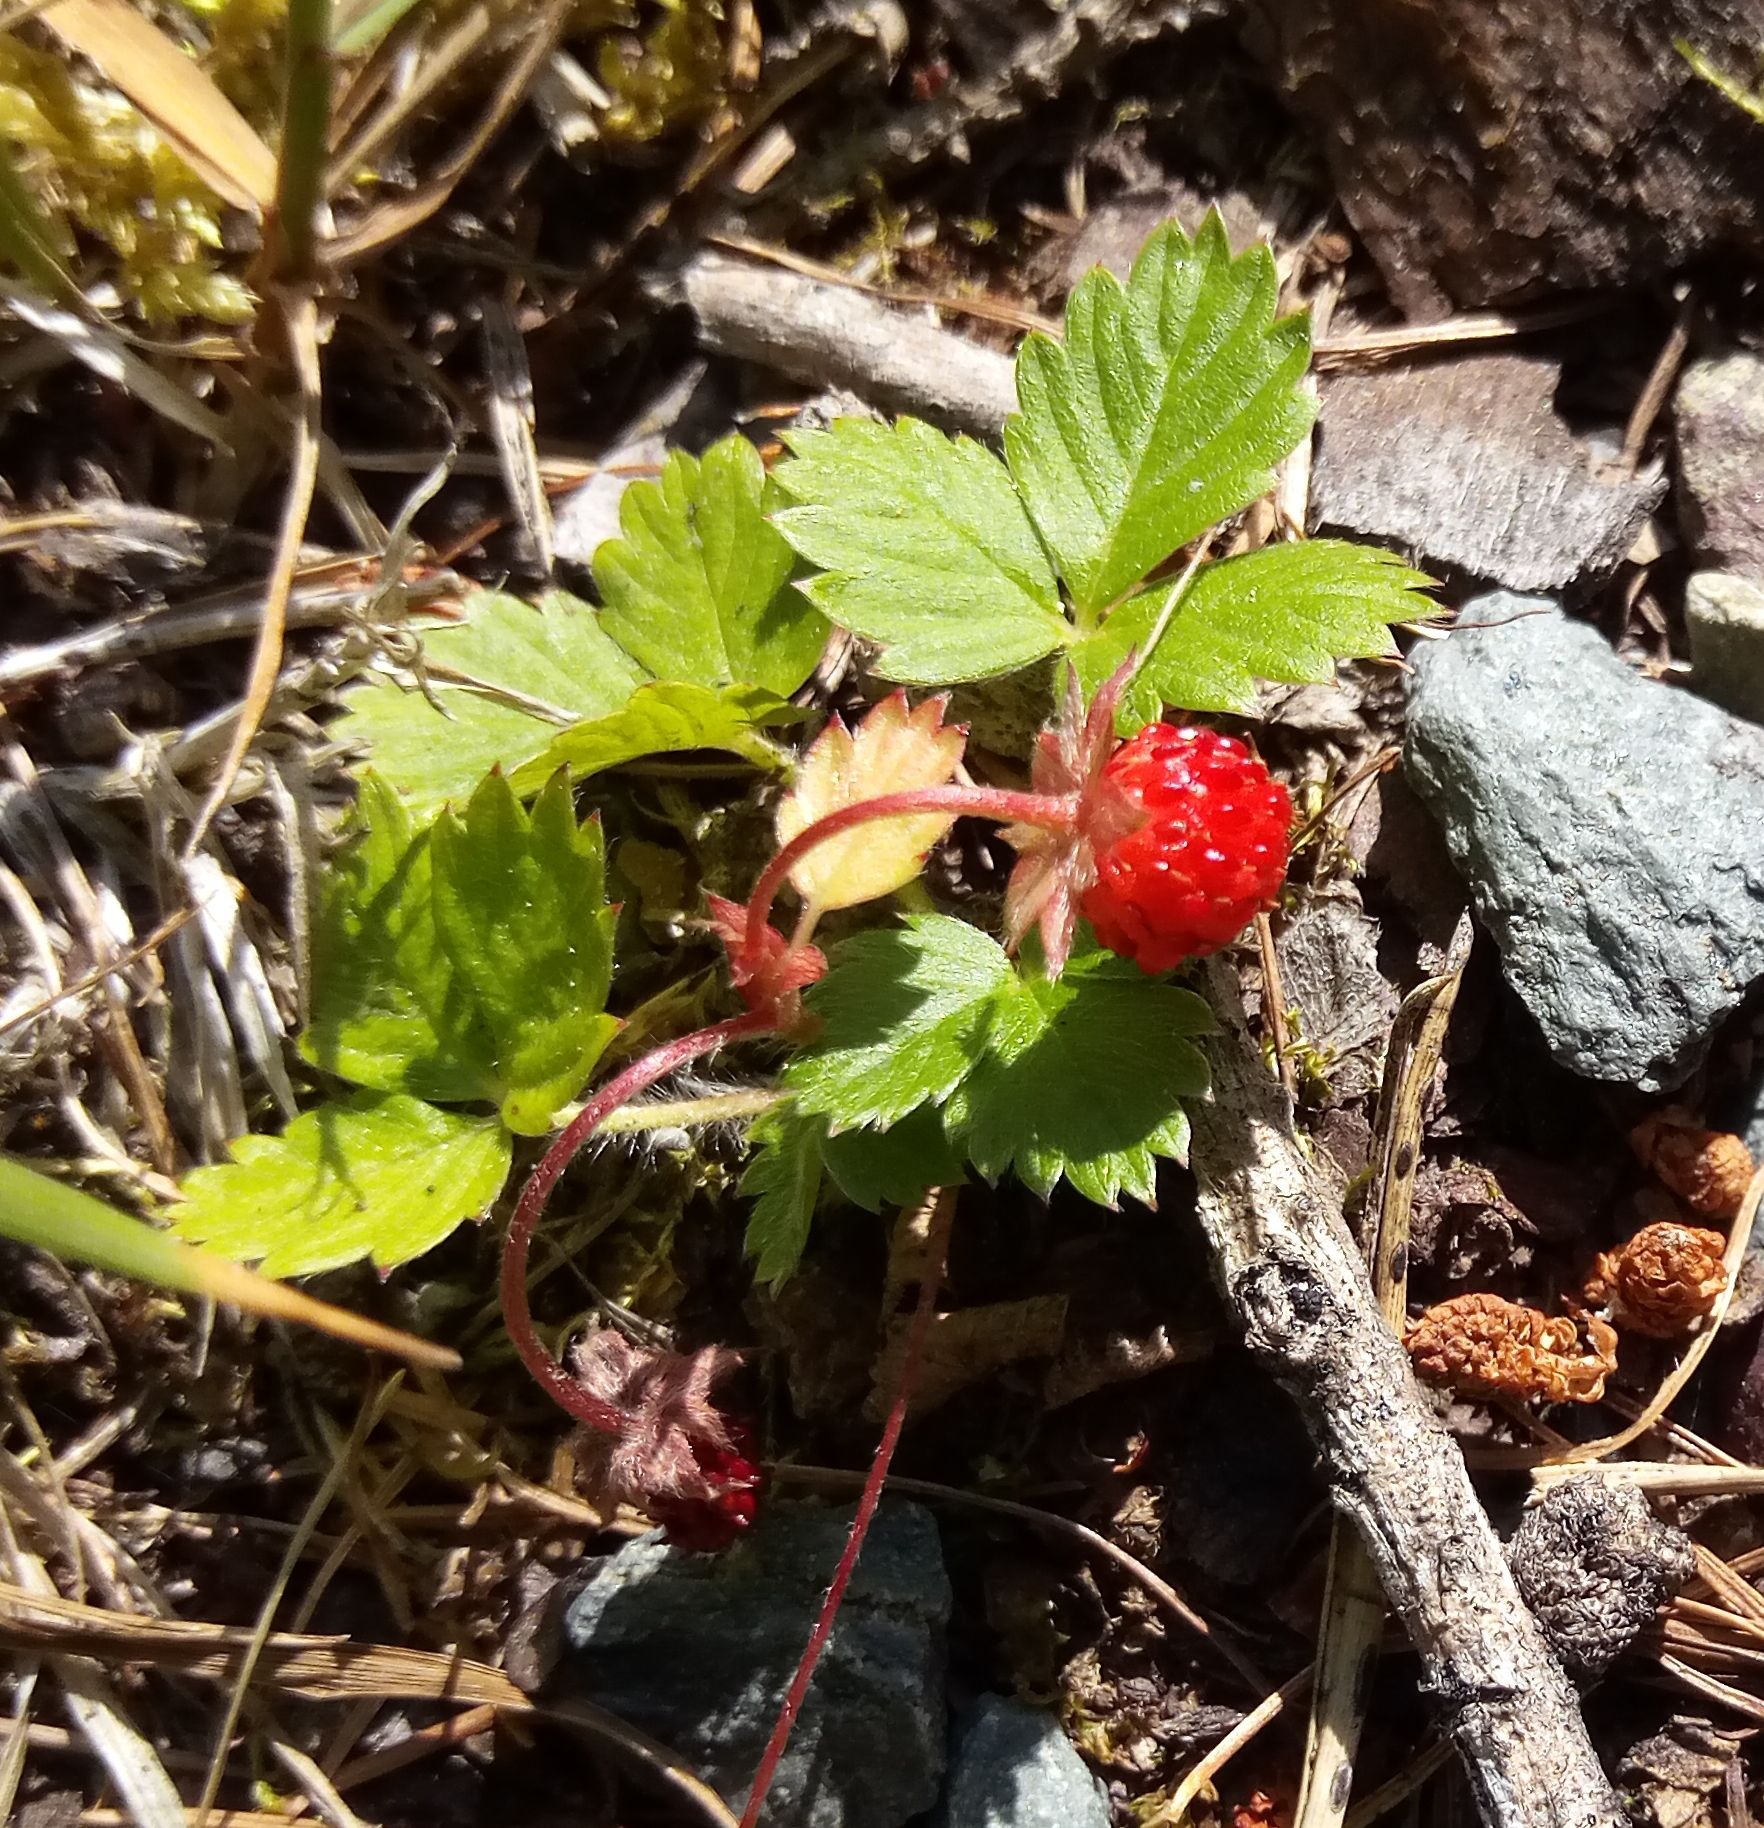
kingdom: Plantae
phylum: Tracheophyta
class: Magnoliopsida
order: Rosales
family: Rosaceae
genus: Fragaria
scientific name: Fragaria vesca
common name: Wild strawberry
